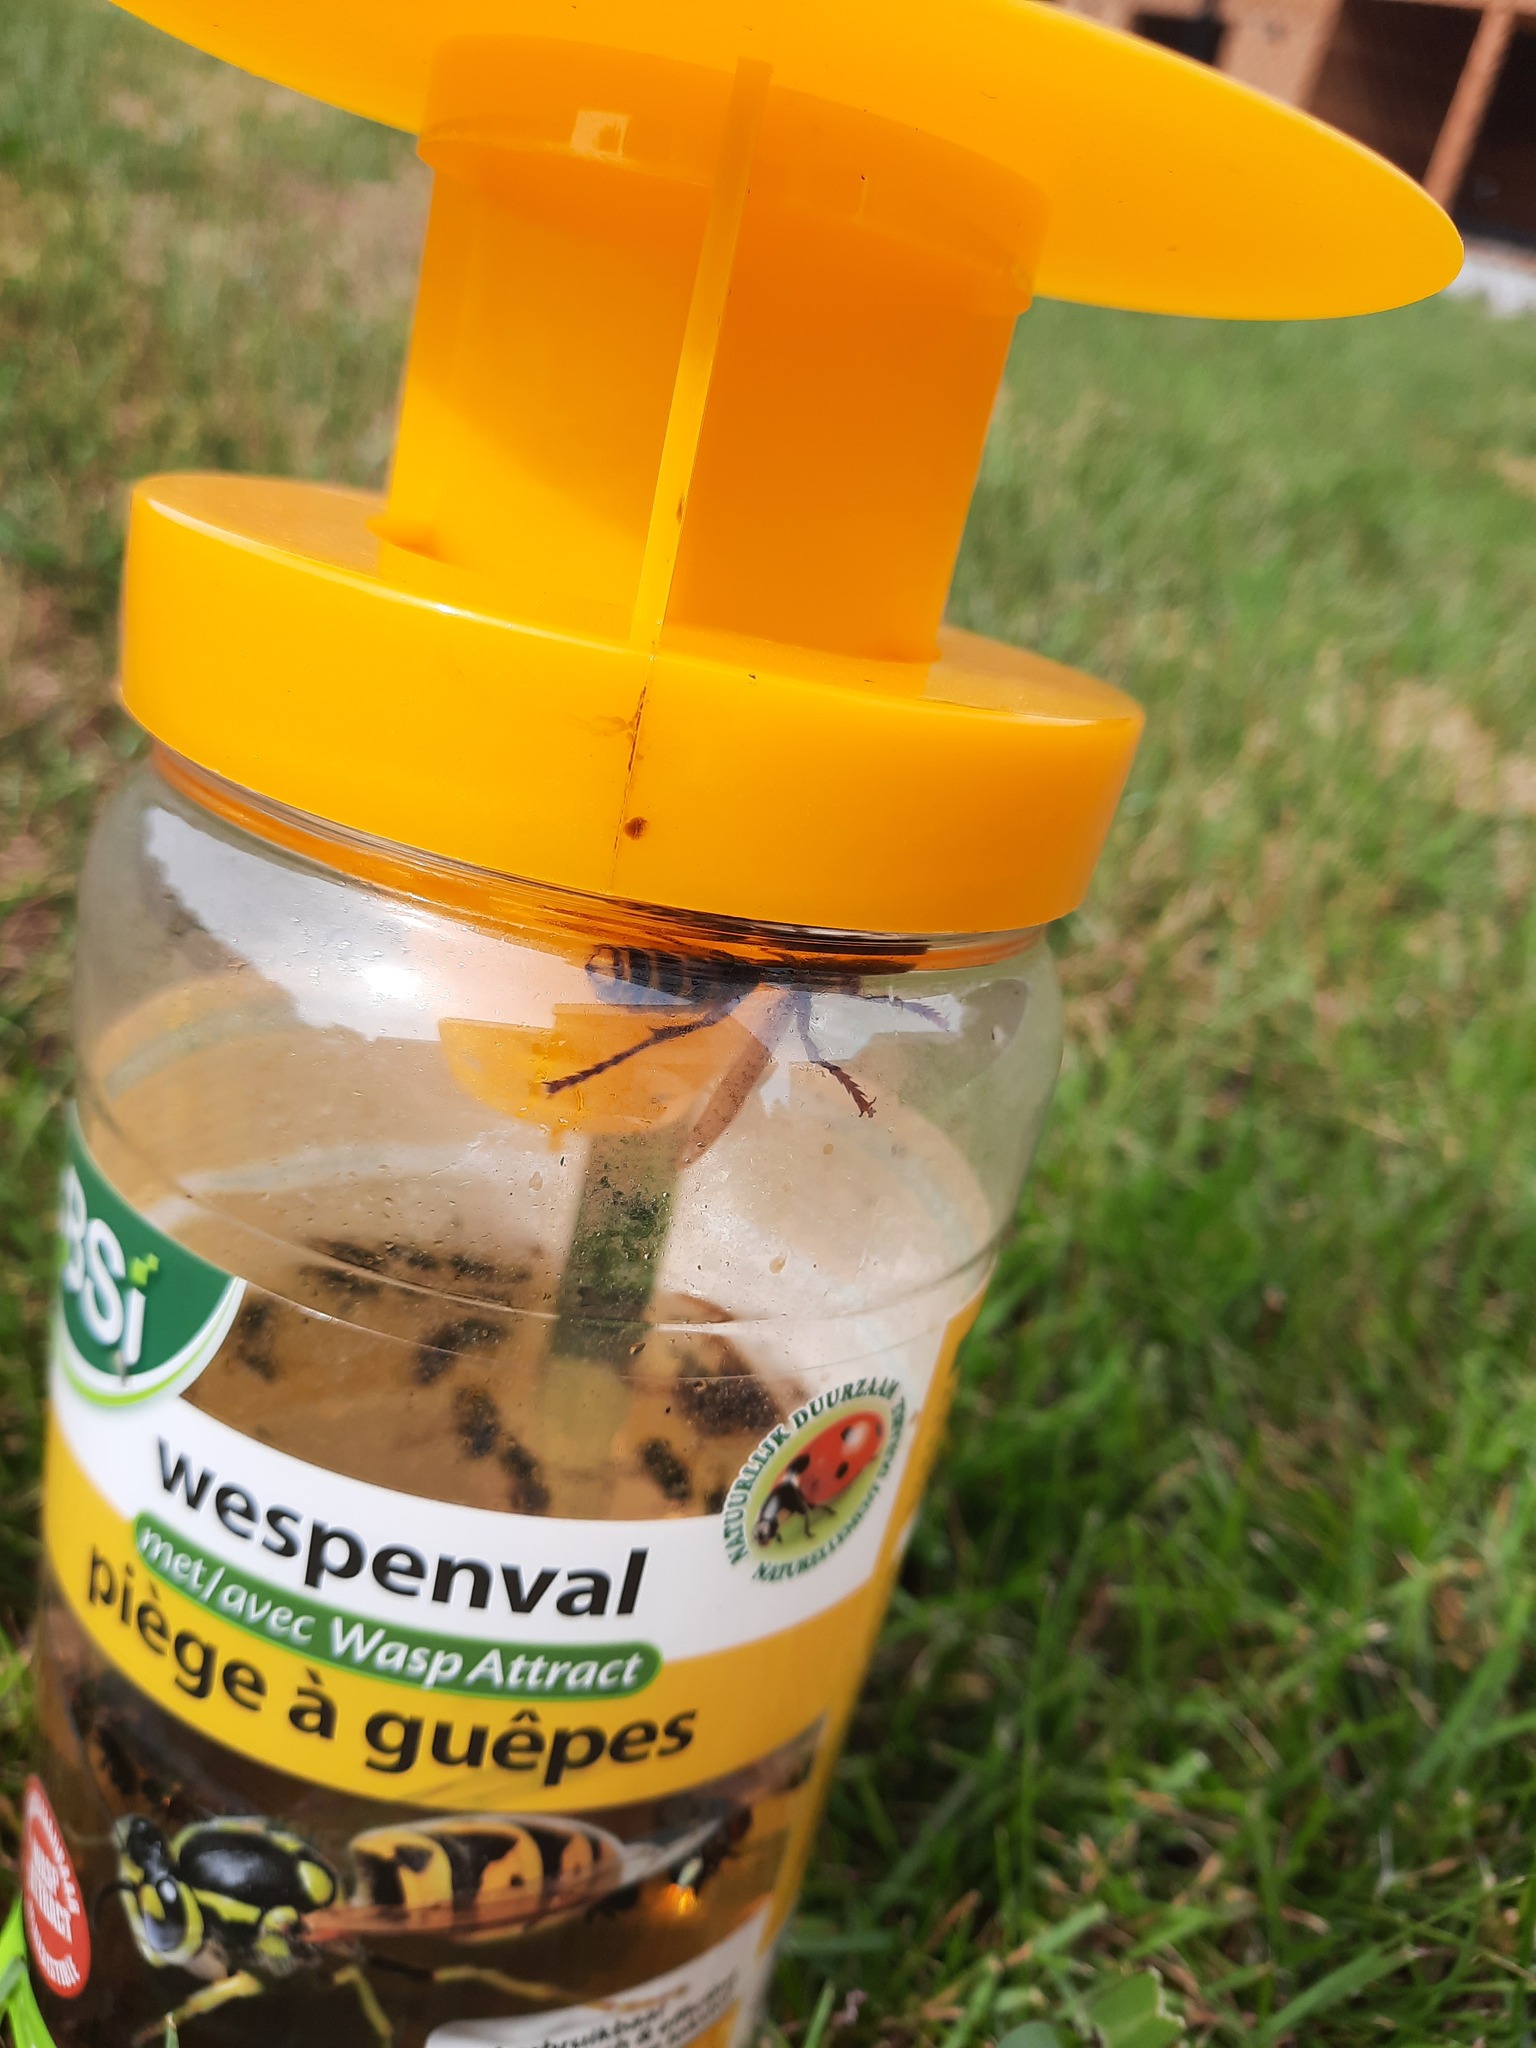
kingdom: Animalia
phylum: Arthropoda
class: Insecta
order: Hymenoptera
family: Vespidae
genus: Vespa
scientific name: Vespa crabro
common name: Hornet
